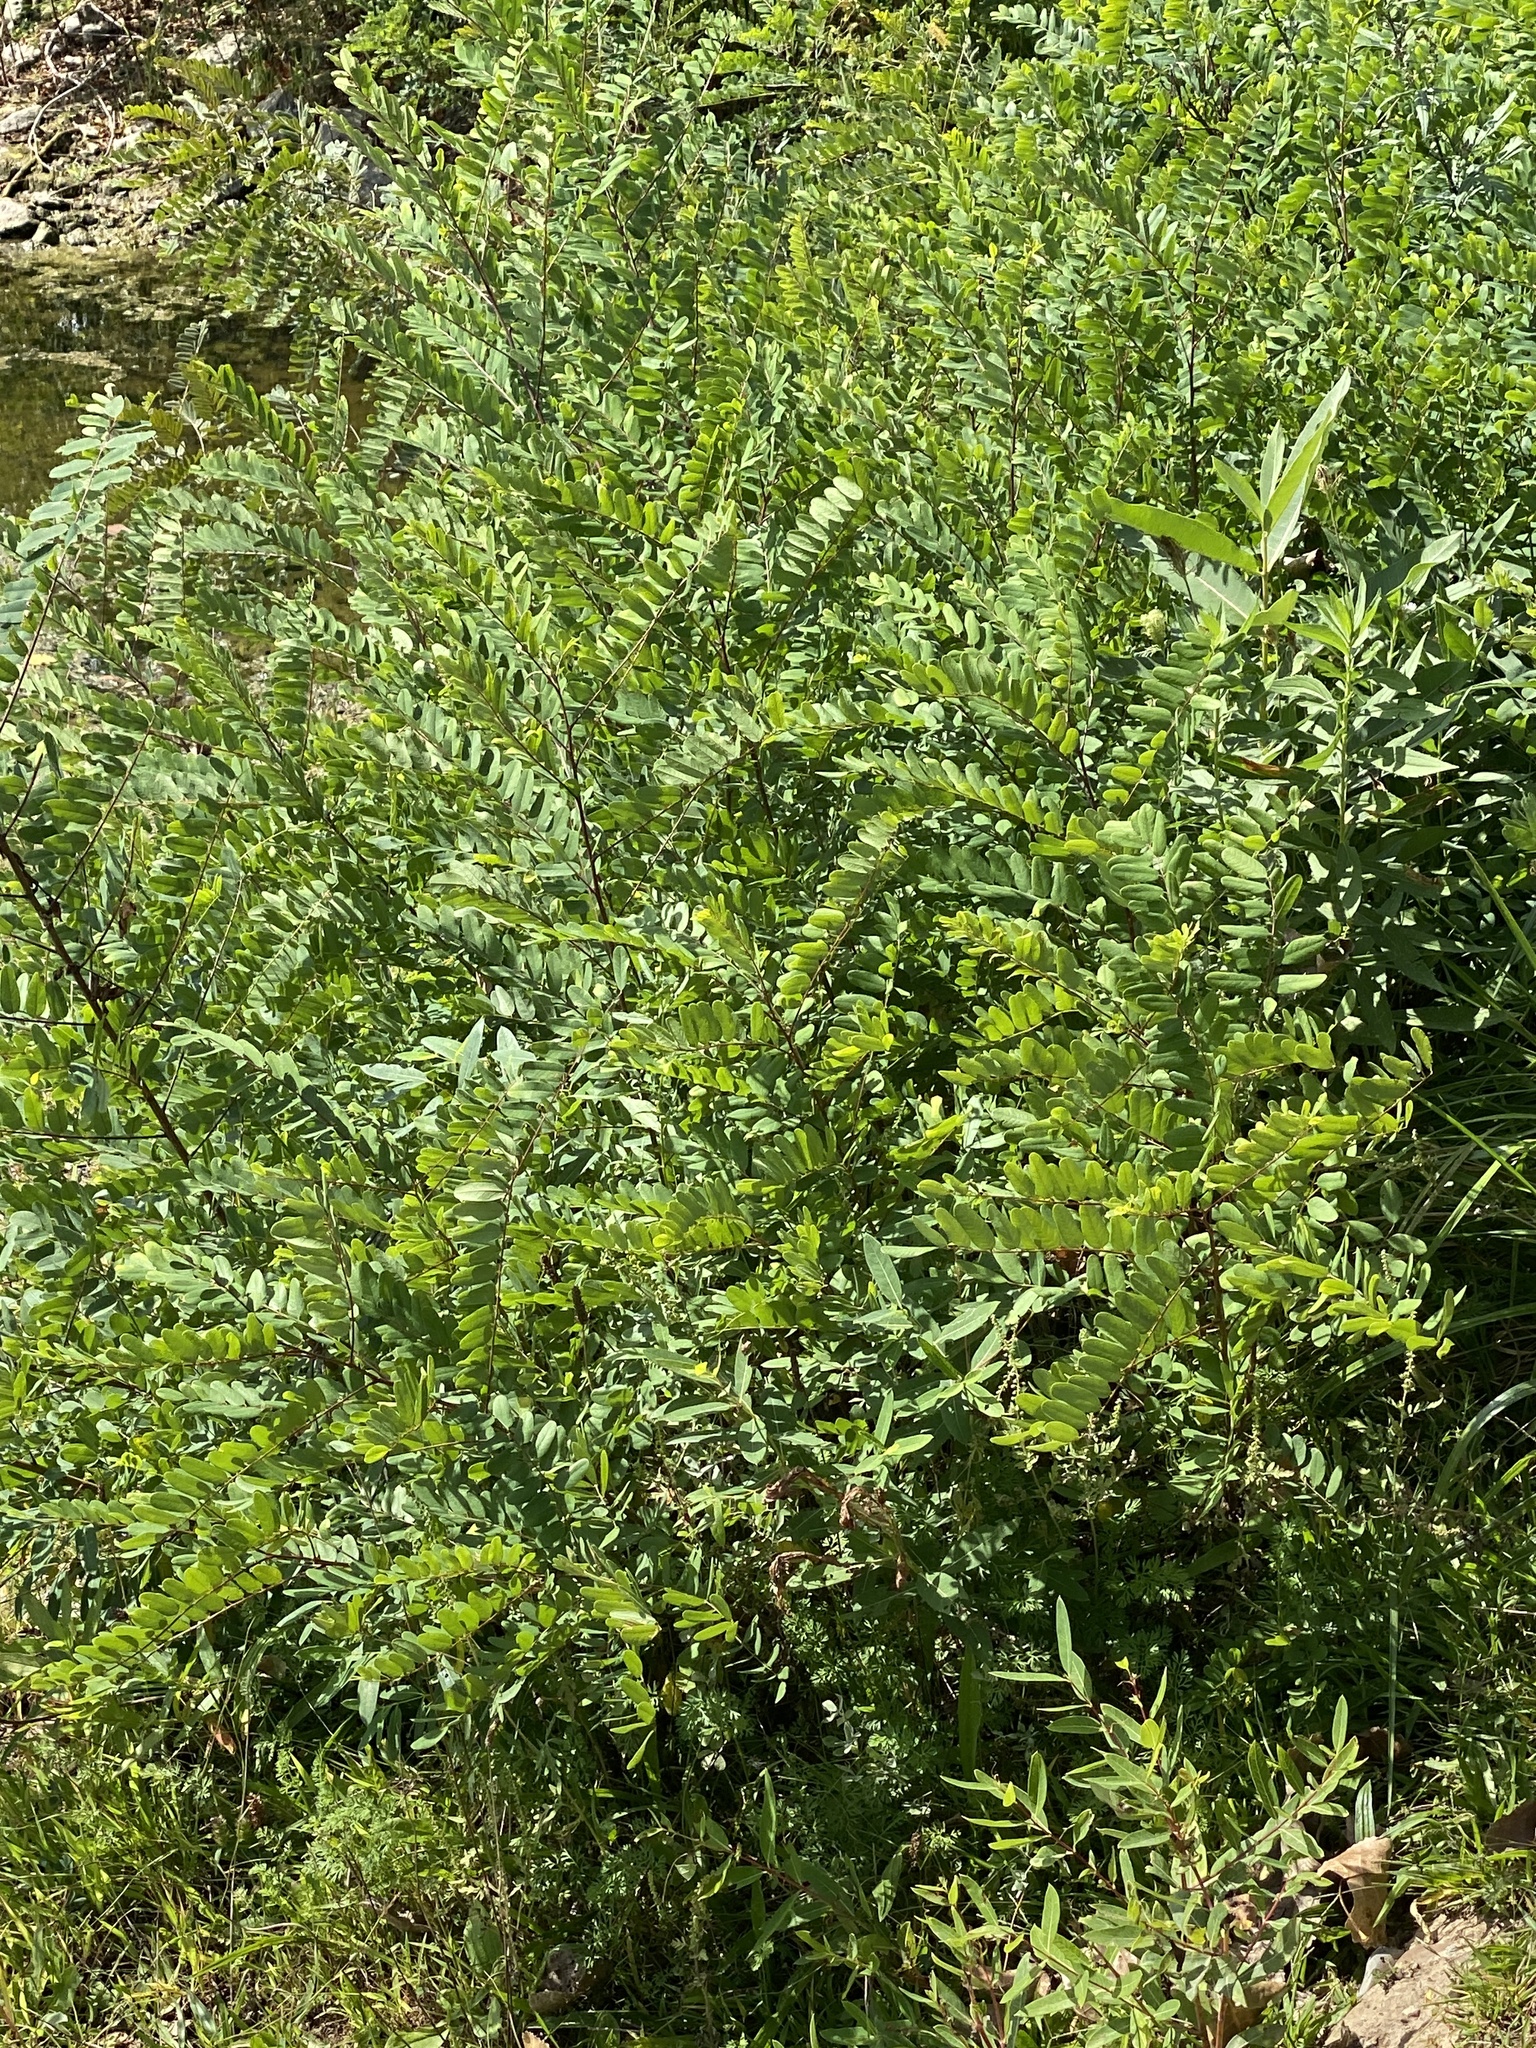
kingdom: Plantae
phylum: Tracheophyta
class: Magnoliopsida
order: Fabales
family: Fabaceae
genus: Amorpha
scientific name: Amorpha fruticosa
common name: False indigo
